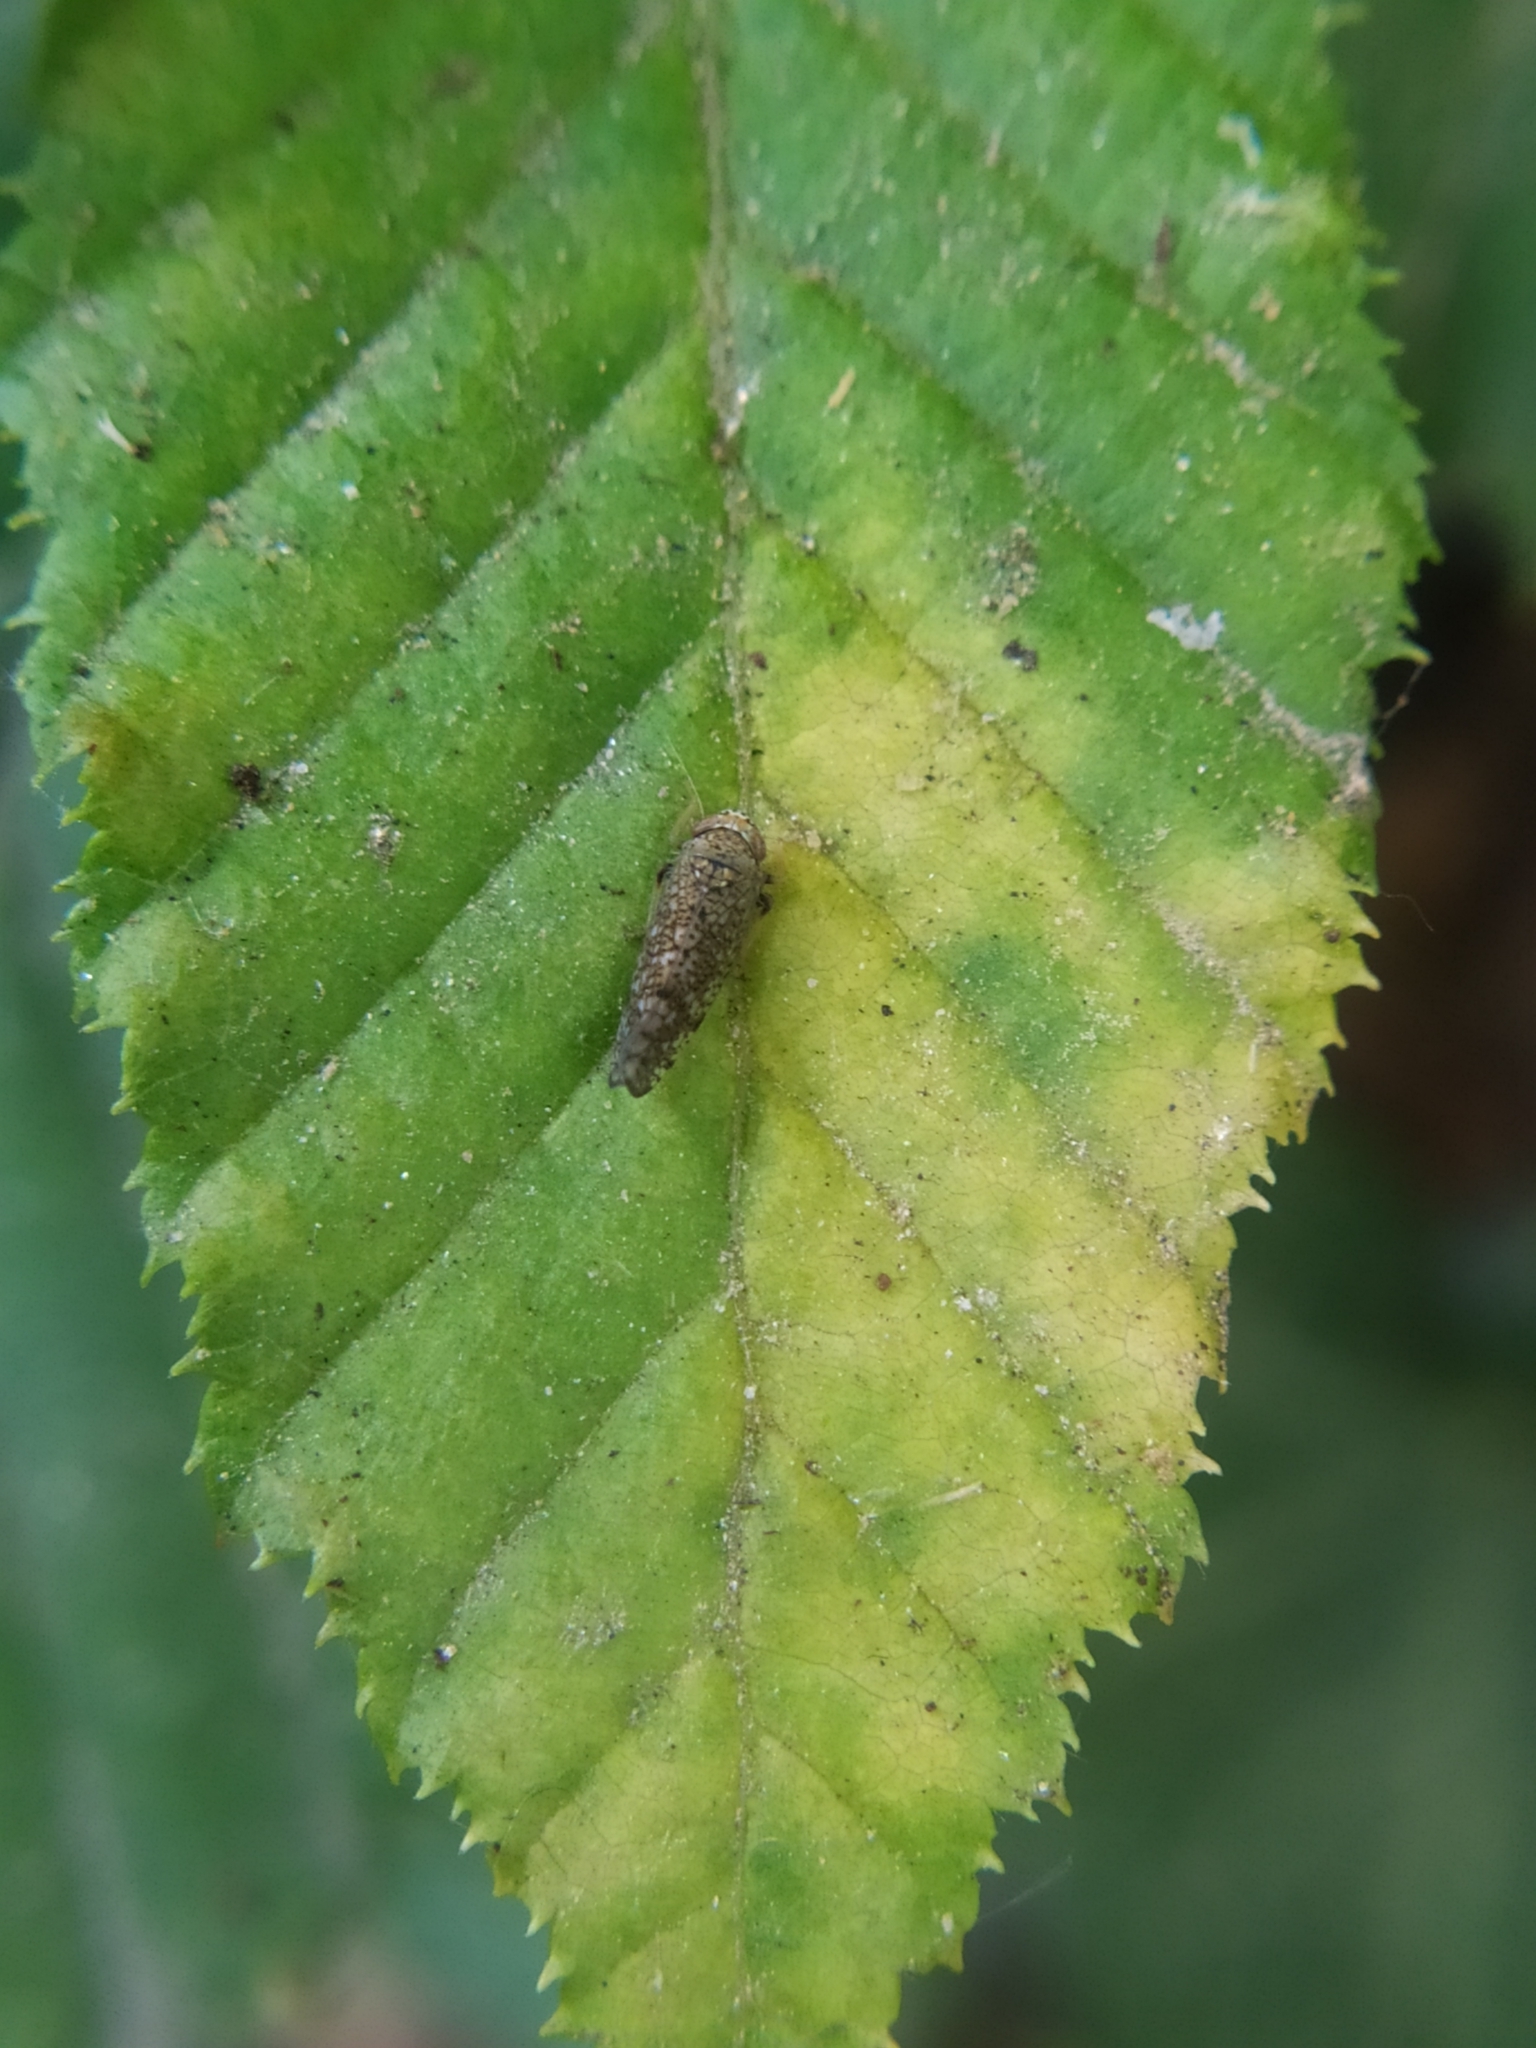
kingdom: Animalia
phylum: Arthropoda
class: Insecta
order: Hemiptera
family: Cicadellidae
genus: Orientus
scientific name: Orientus ishidae
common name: Japanese leafhopper
